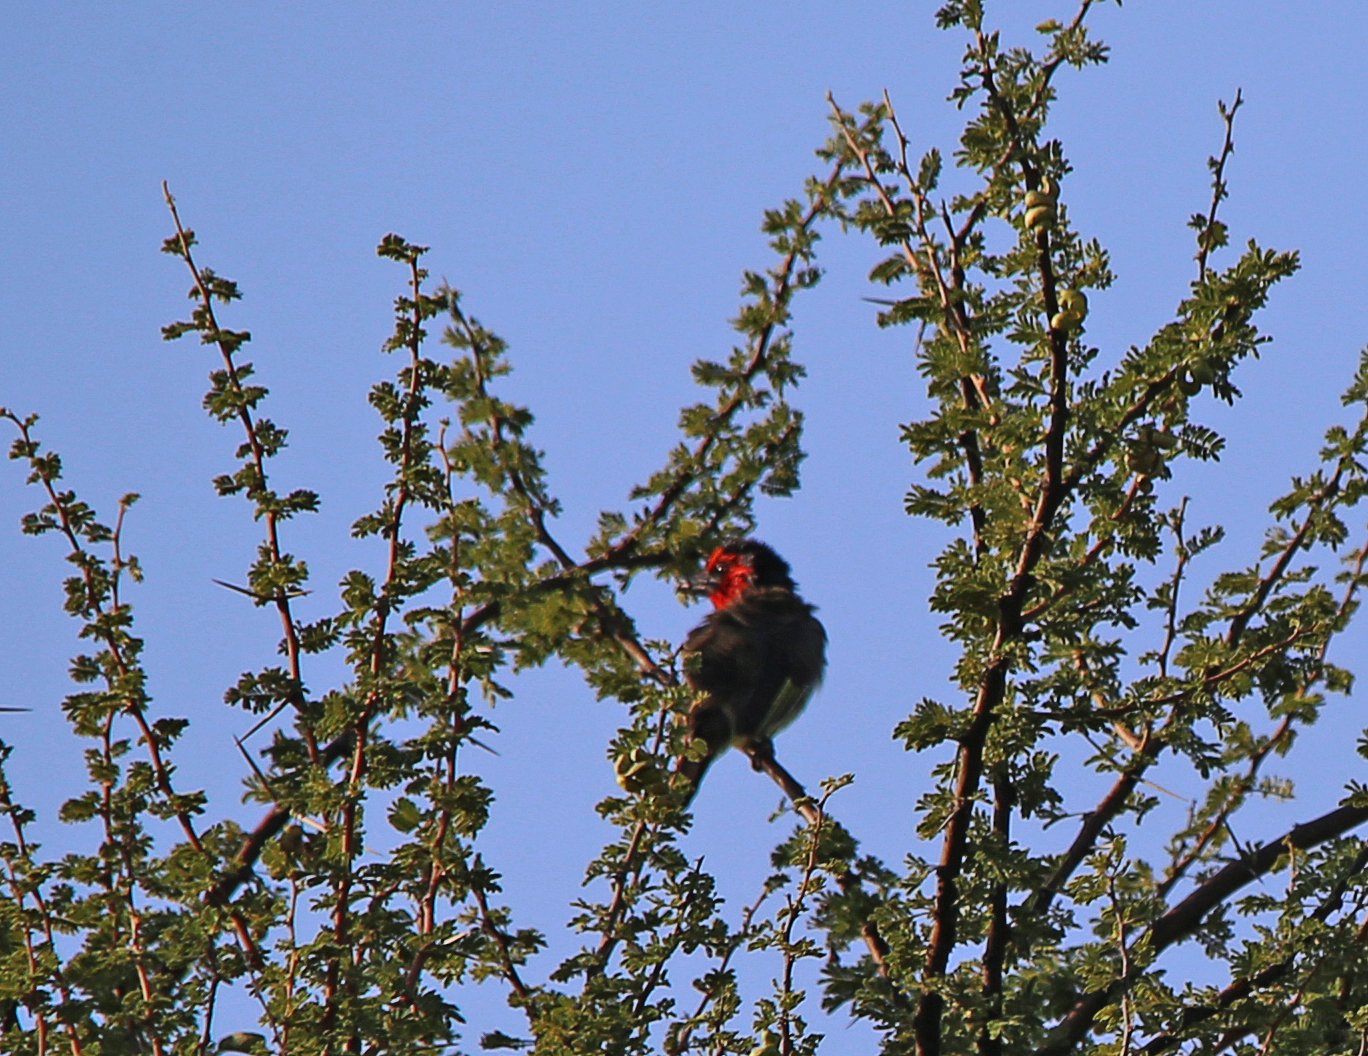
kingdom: Animalia
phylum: Chordata
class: Aves
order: Piciformes
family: Lybiidae
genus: Lybius
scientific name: Lybius torquatus
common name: Black-collared barbet
